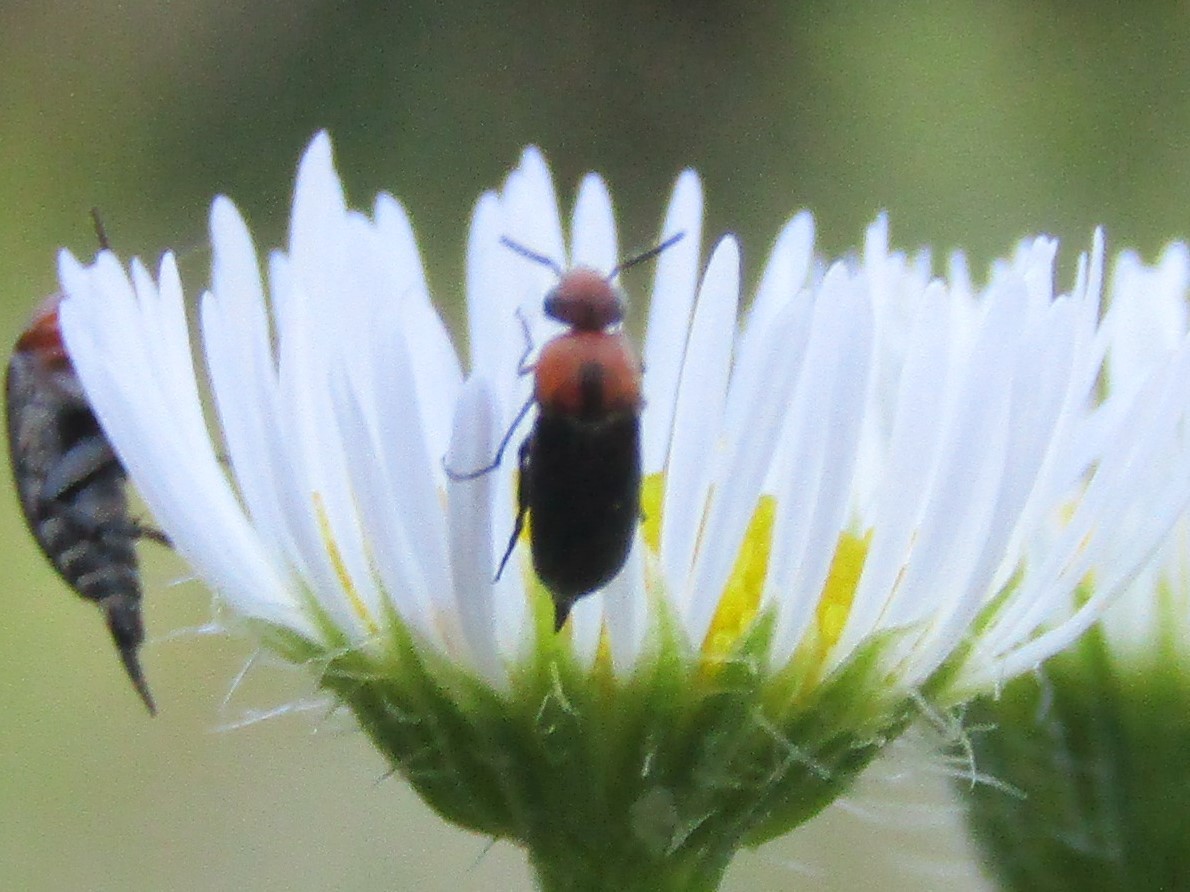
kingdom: Animalia
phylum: Arthropoda
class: Insecta
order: Coleoptera
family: Mordellidae
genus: Mordellistena
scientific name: Mordellistena cervicalis
